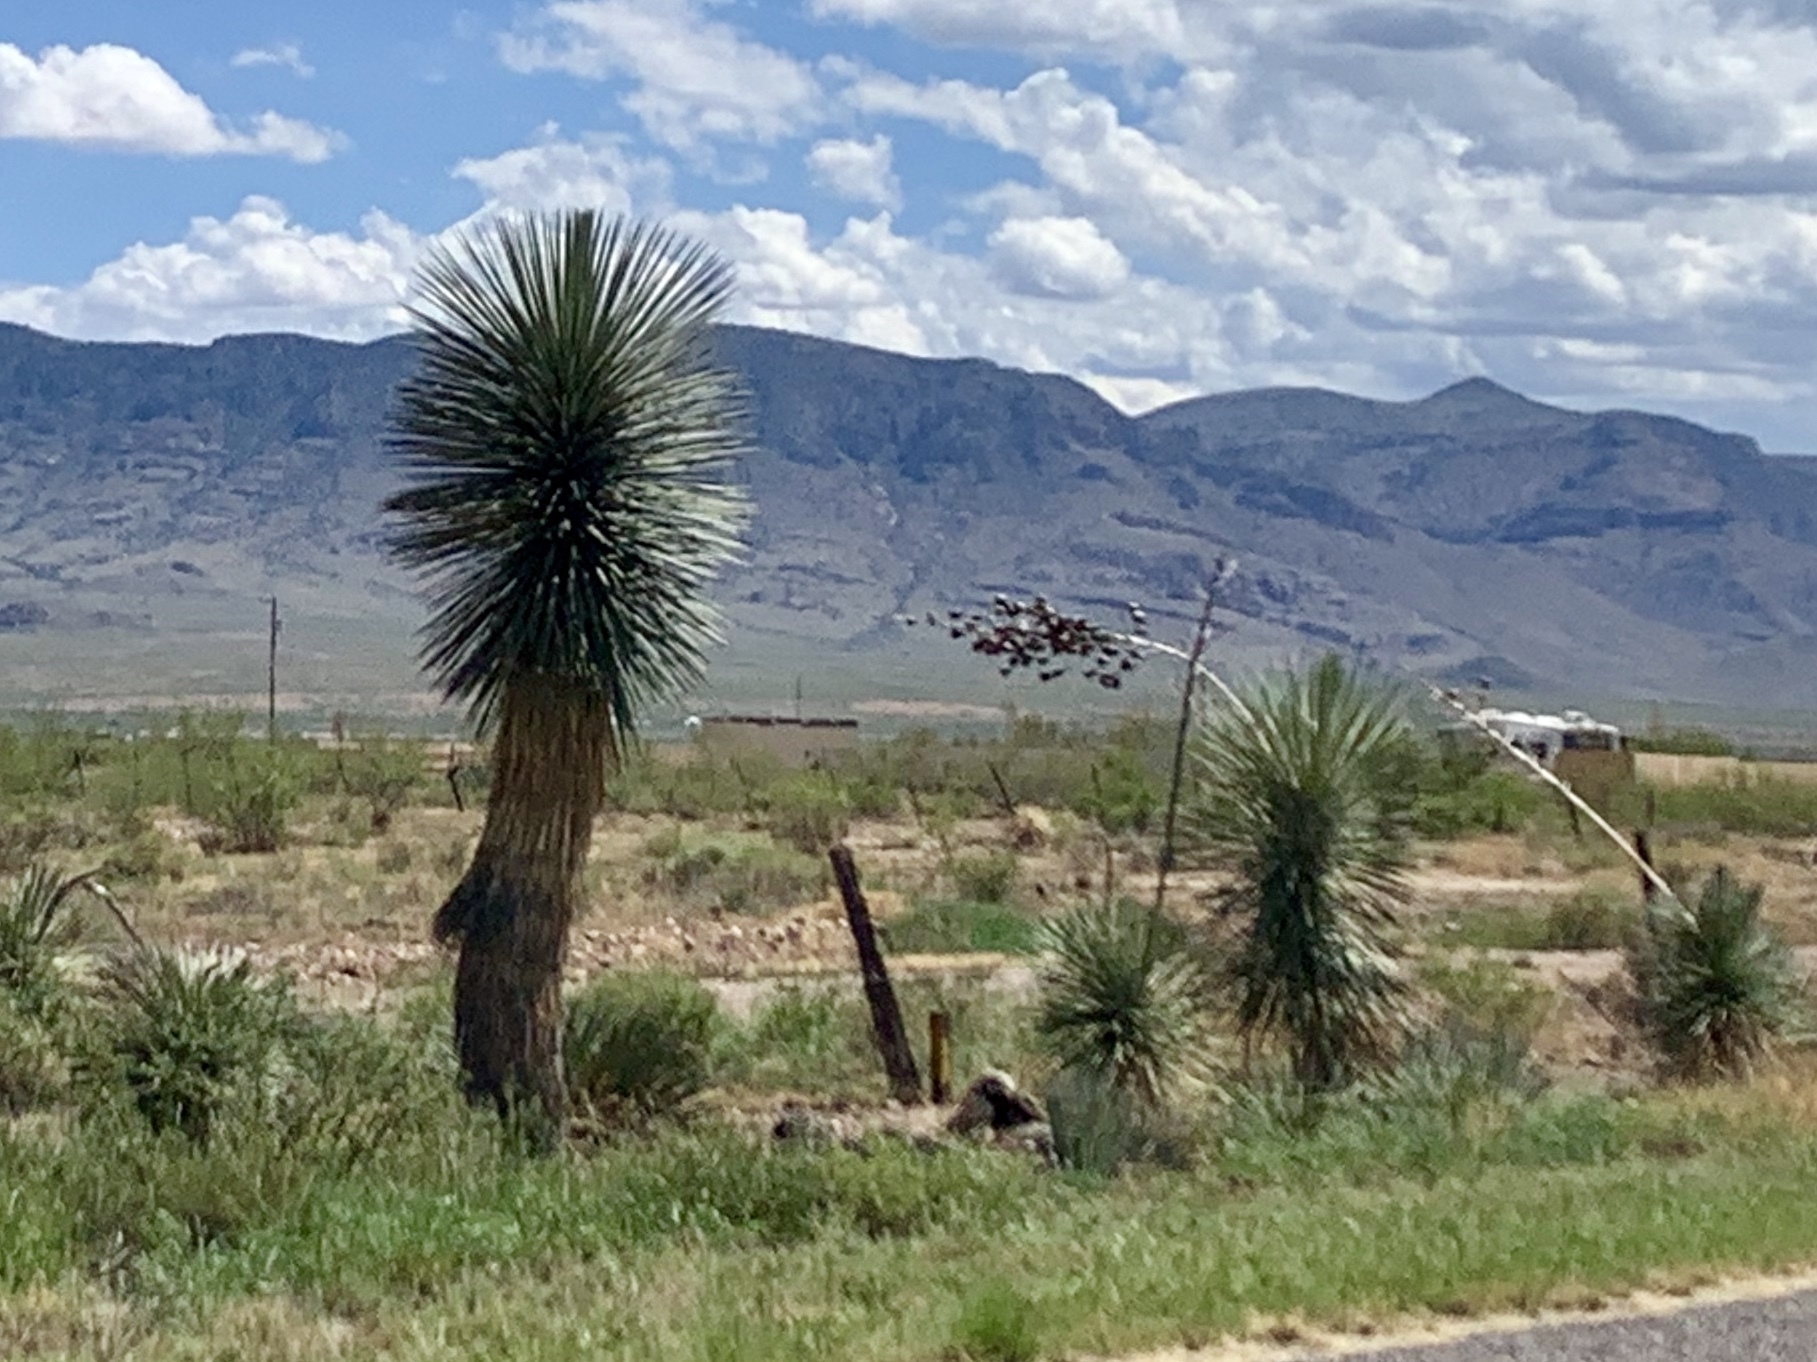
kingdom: Plantae
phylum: Tracheophyta
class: Liliopsida
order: Asparagales
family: Asparagaceae
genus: Yucca
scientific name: Yucca elata
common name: Palmella
